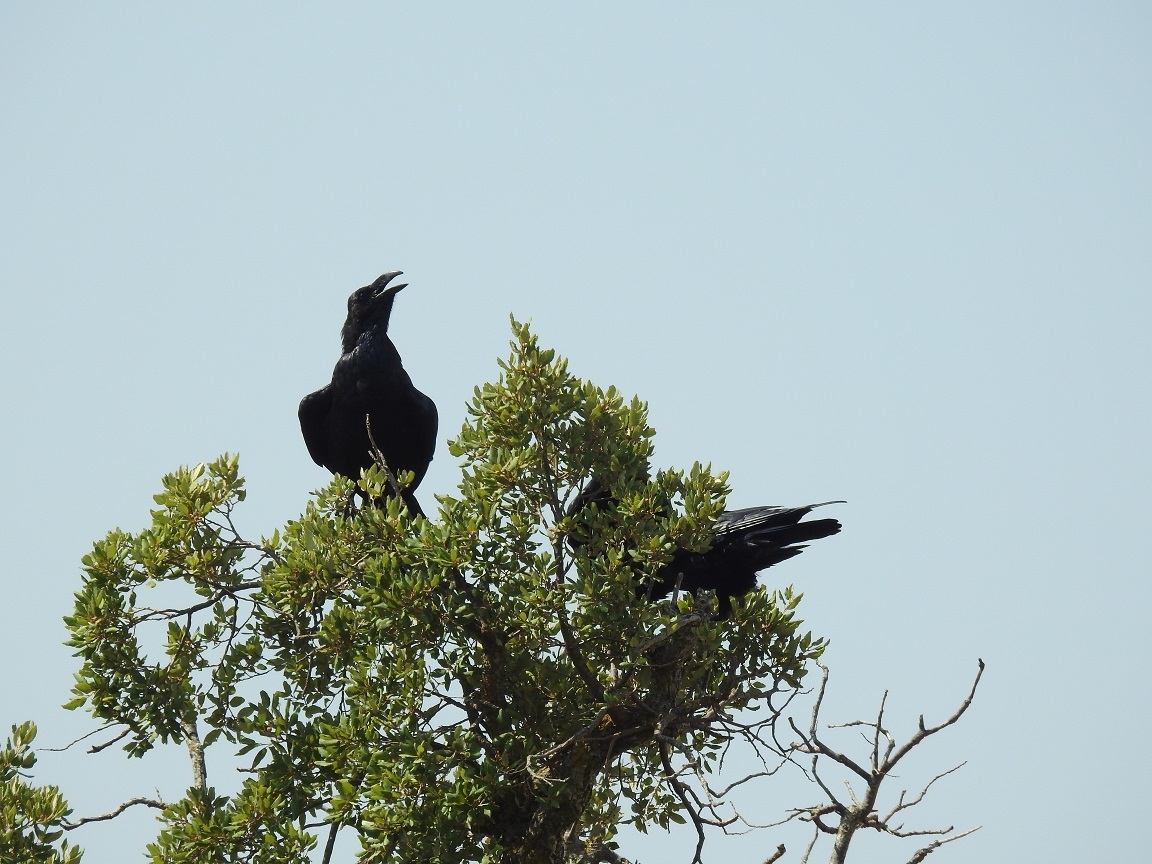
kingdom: Animalia
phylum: Chordata
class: Aves
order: Passeriformes
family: Corvidae
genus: Corvus
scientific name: Corvus corax
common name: Common raven
